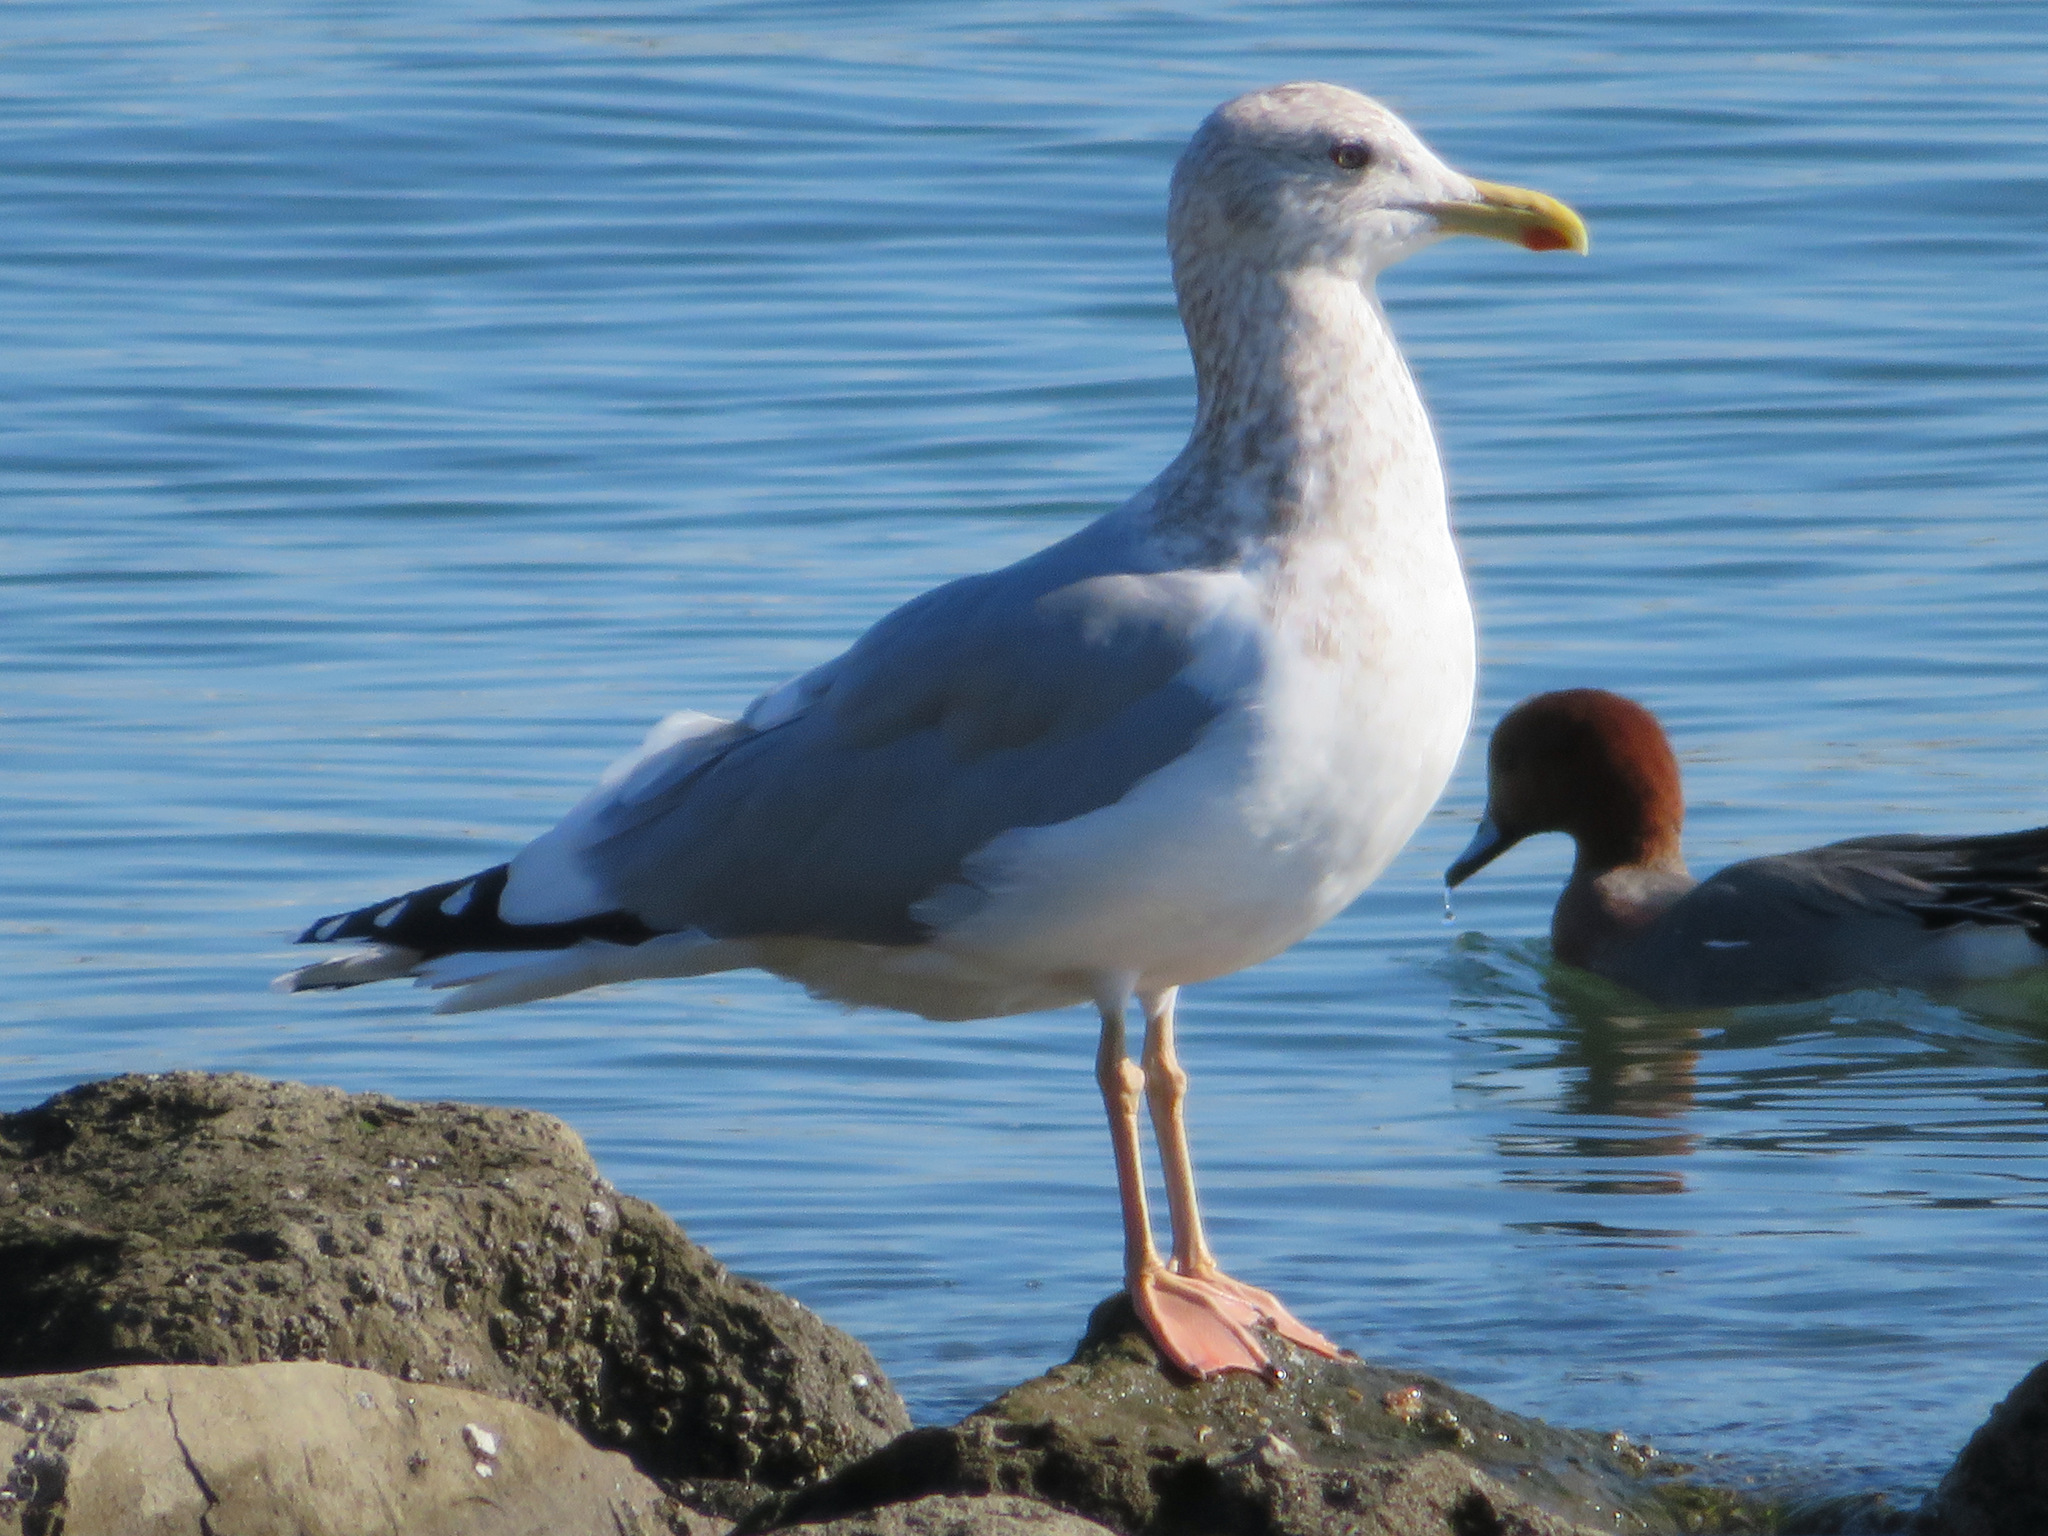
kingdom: Animalia
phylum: Chordata
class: Aves
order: Charadriiformes
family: Laridae
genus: Larus
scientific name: Larus vegae
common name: Vega gull
